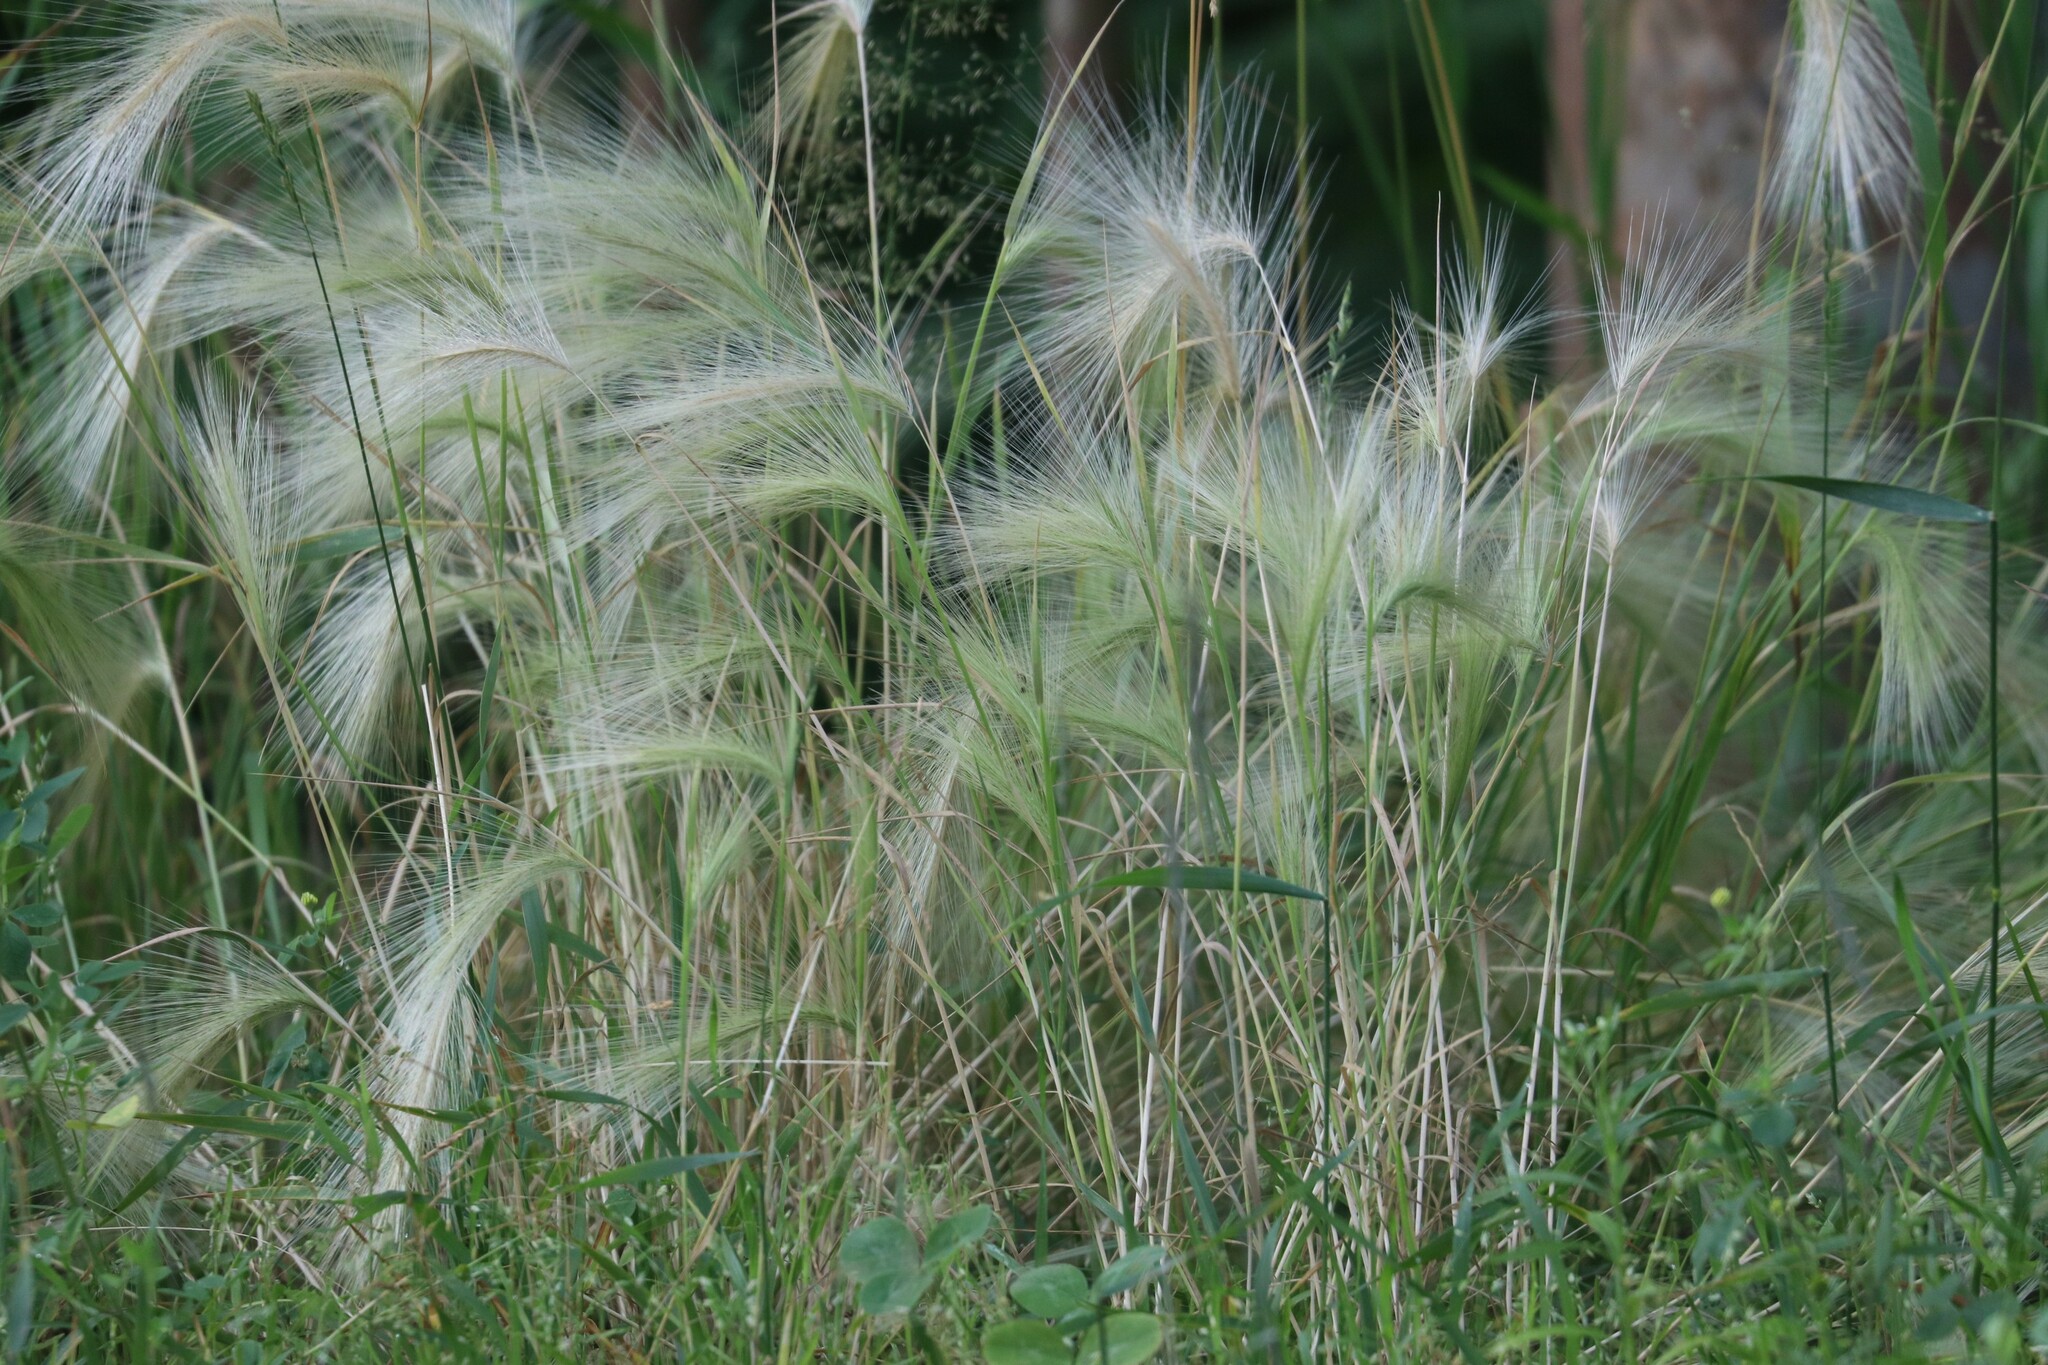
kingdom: Plantae
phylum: Tracheophyta
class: Liliopsida
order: Poales
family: Poaceae
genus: Hordeum
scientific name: Hordeum jubatum
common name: Foxtail barley
